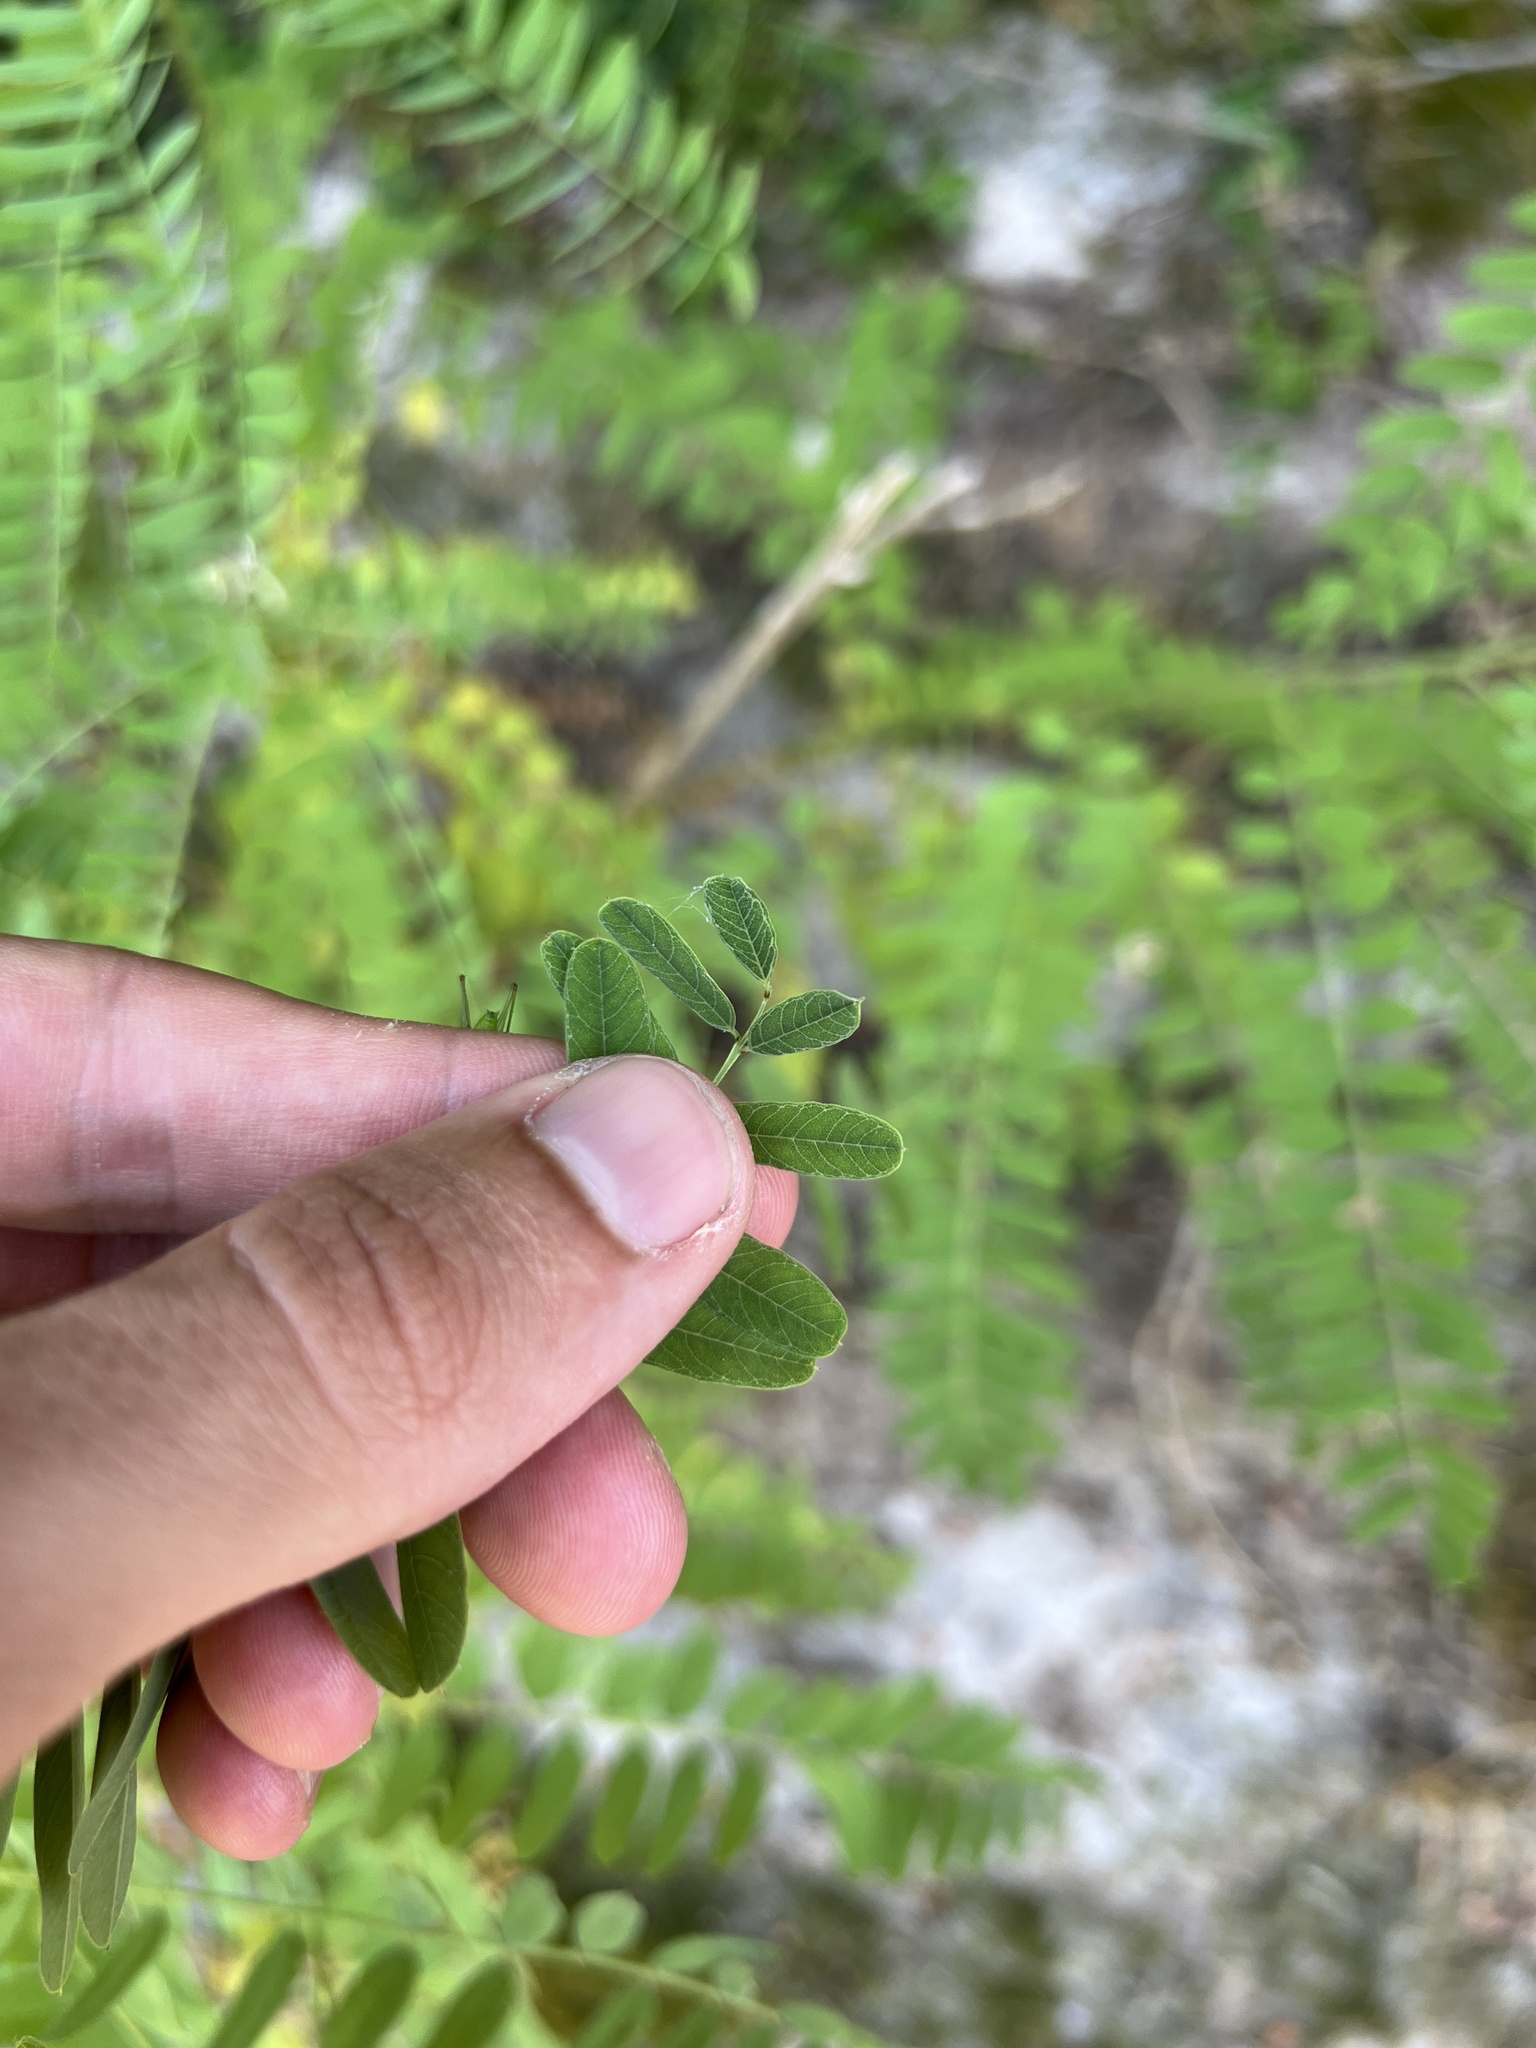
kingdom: Plantae
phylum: Tracheophyta
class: Magnoliopsida
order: Fabales
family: Fabaceae
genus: Amorpha
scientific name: Amorpha fruticosa
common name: False indigo
